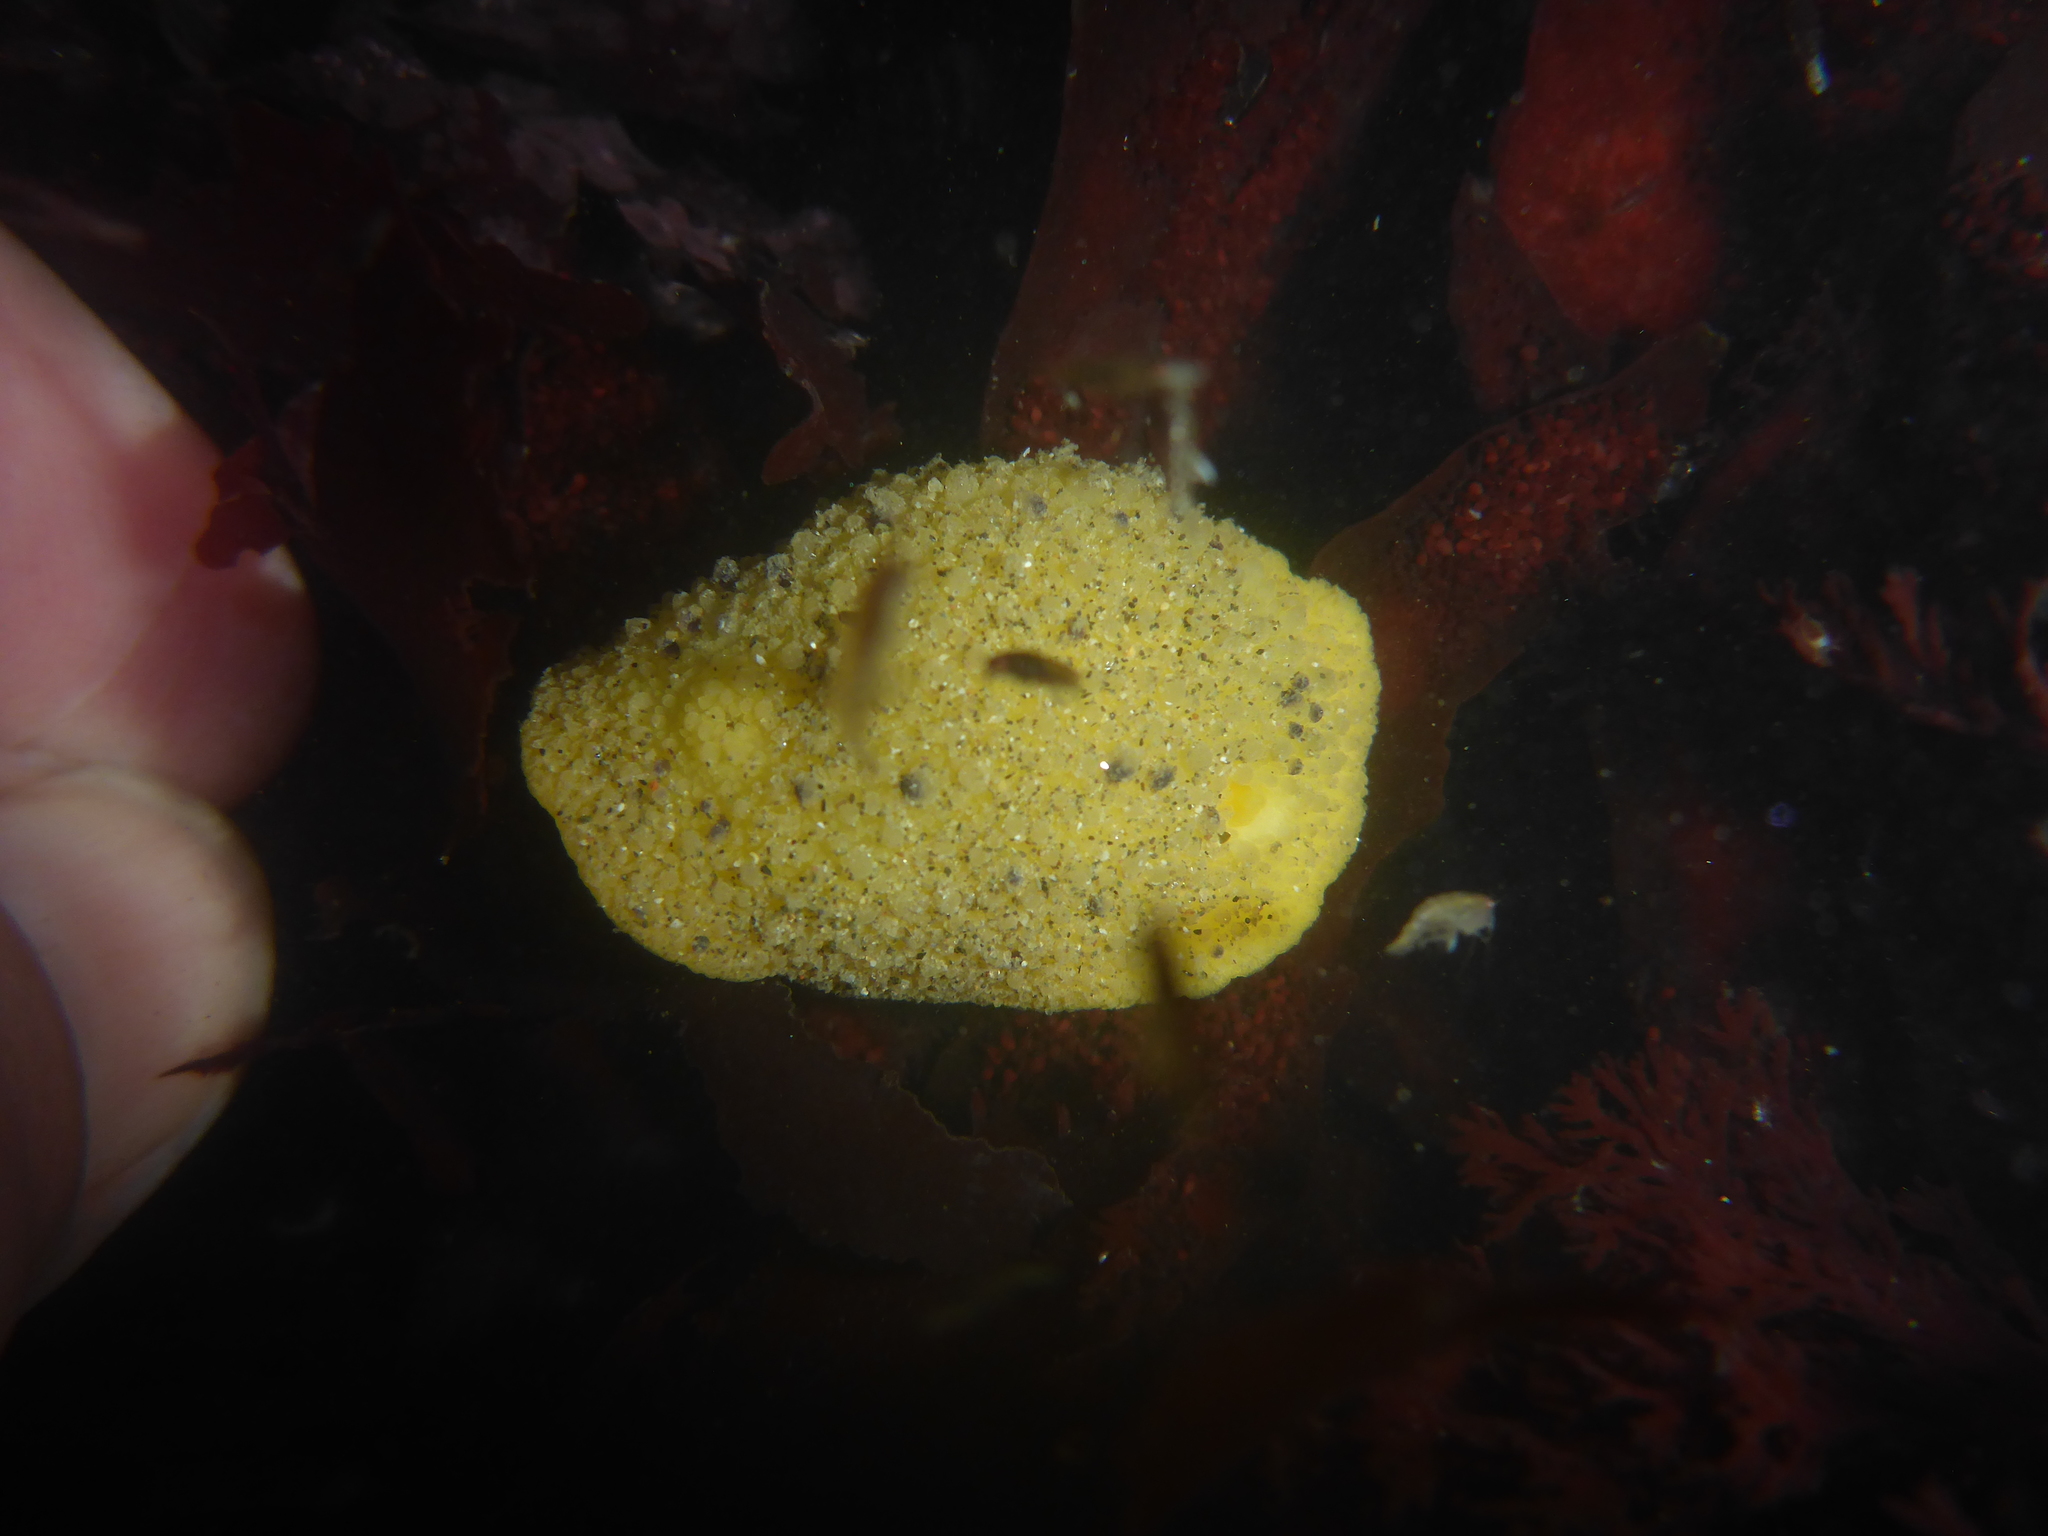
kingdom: Animalia
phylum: Mollusca
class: Gastropoda
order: Nudibranchia
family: Dorididae
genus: Doris
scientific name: Doris montereyensis
